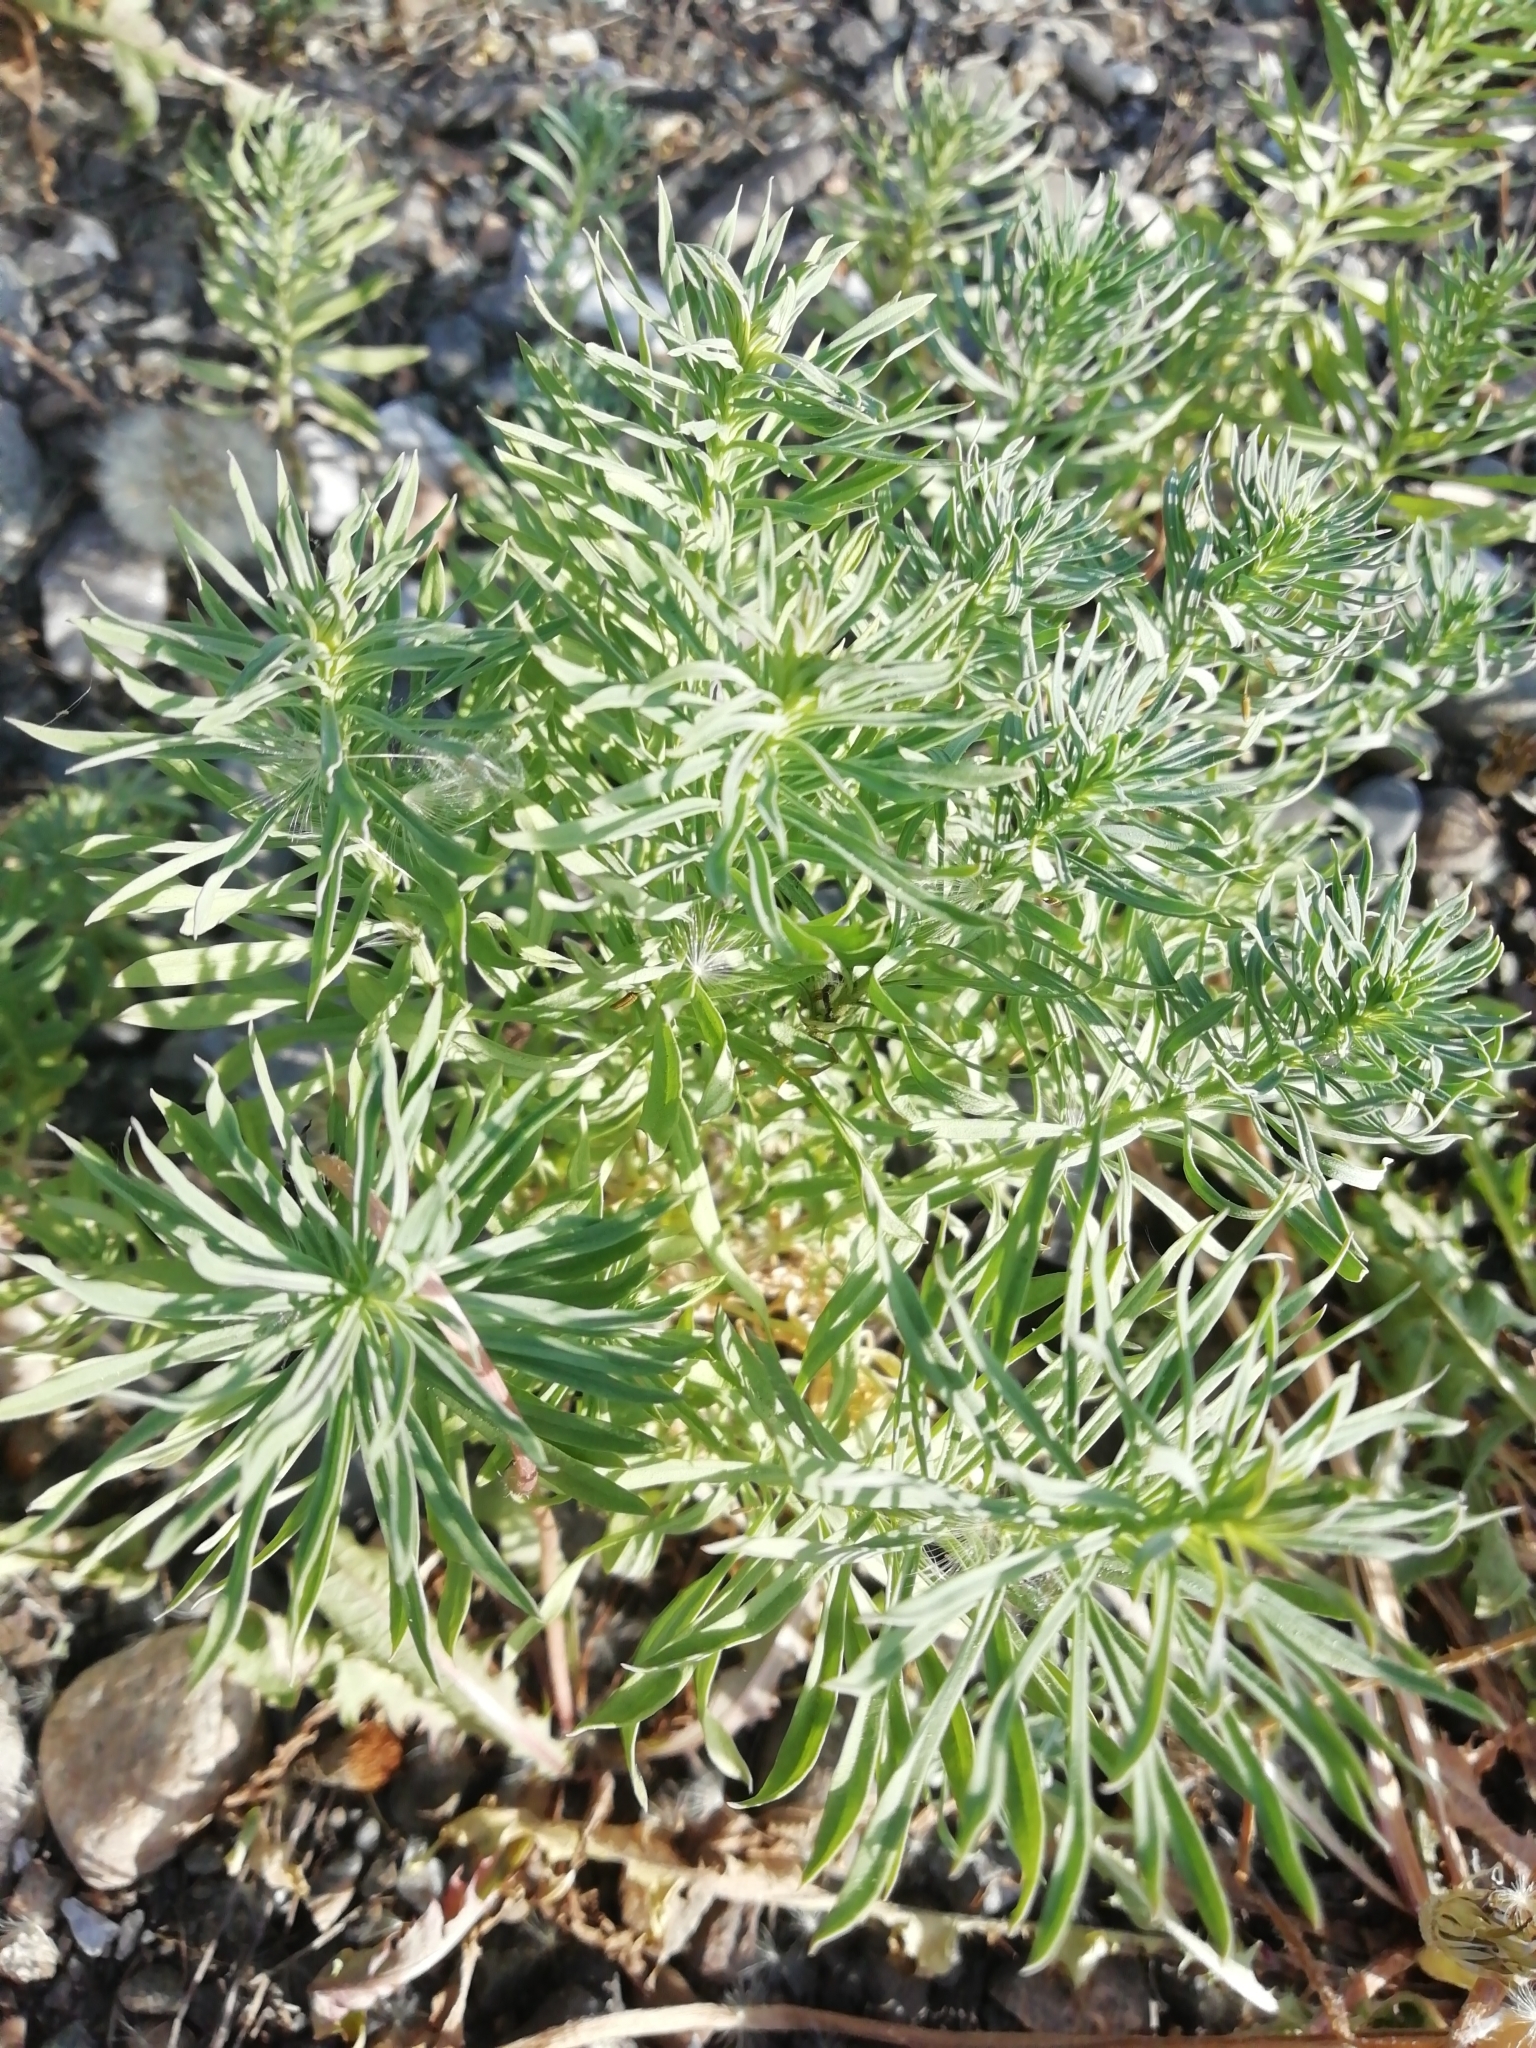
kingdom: Plantae
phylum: Tracheophyta
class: Magnoliopsida
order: Malpighiales
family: Euphorbiaceae
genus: Euphorbia
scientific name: Euphorbia cyparissias
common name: Cypress spurge
